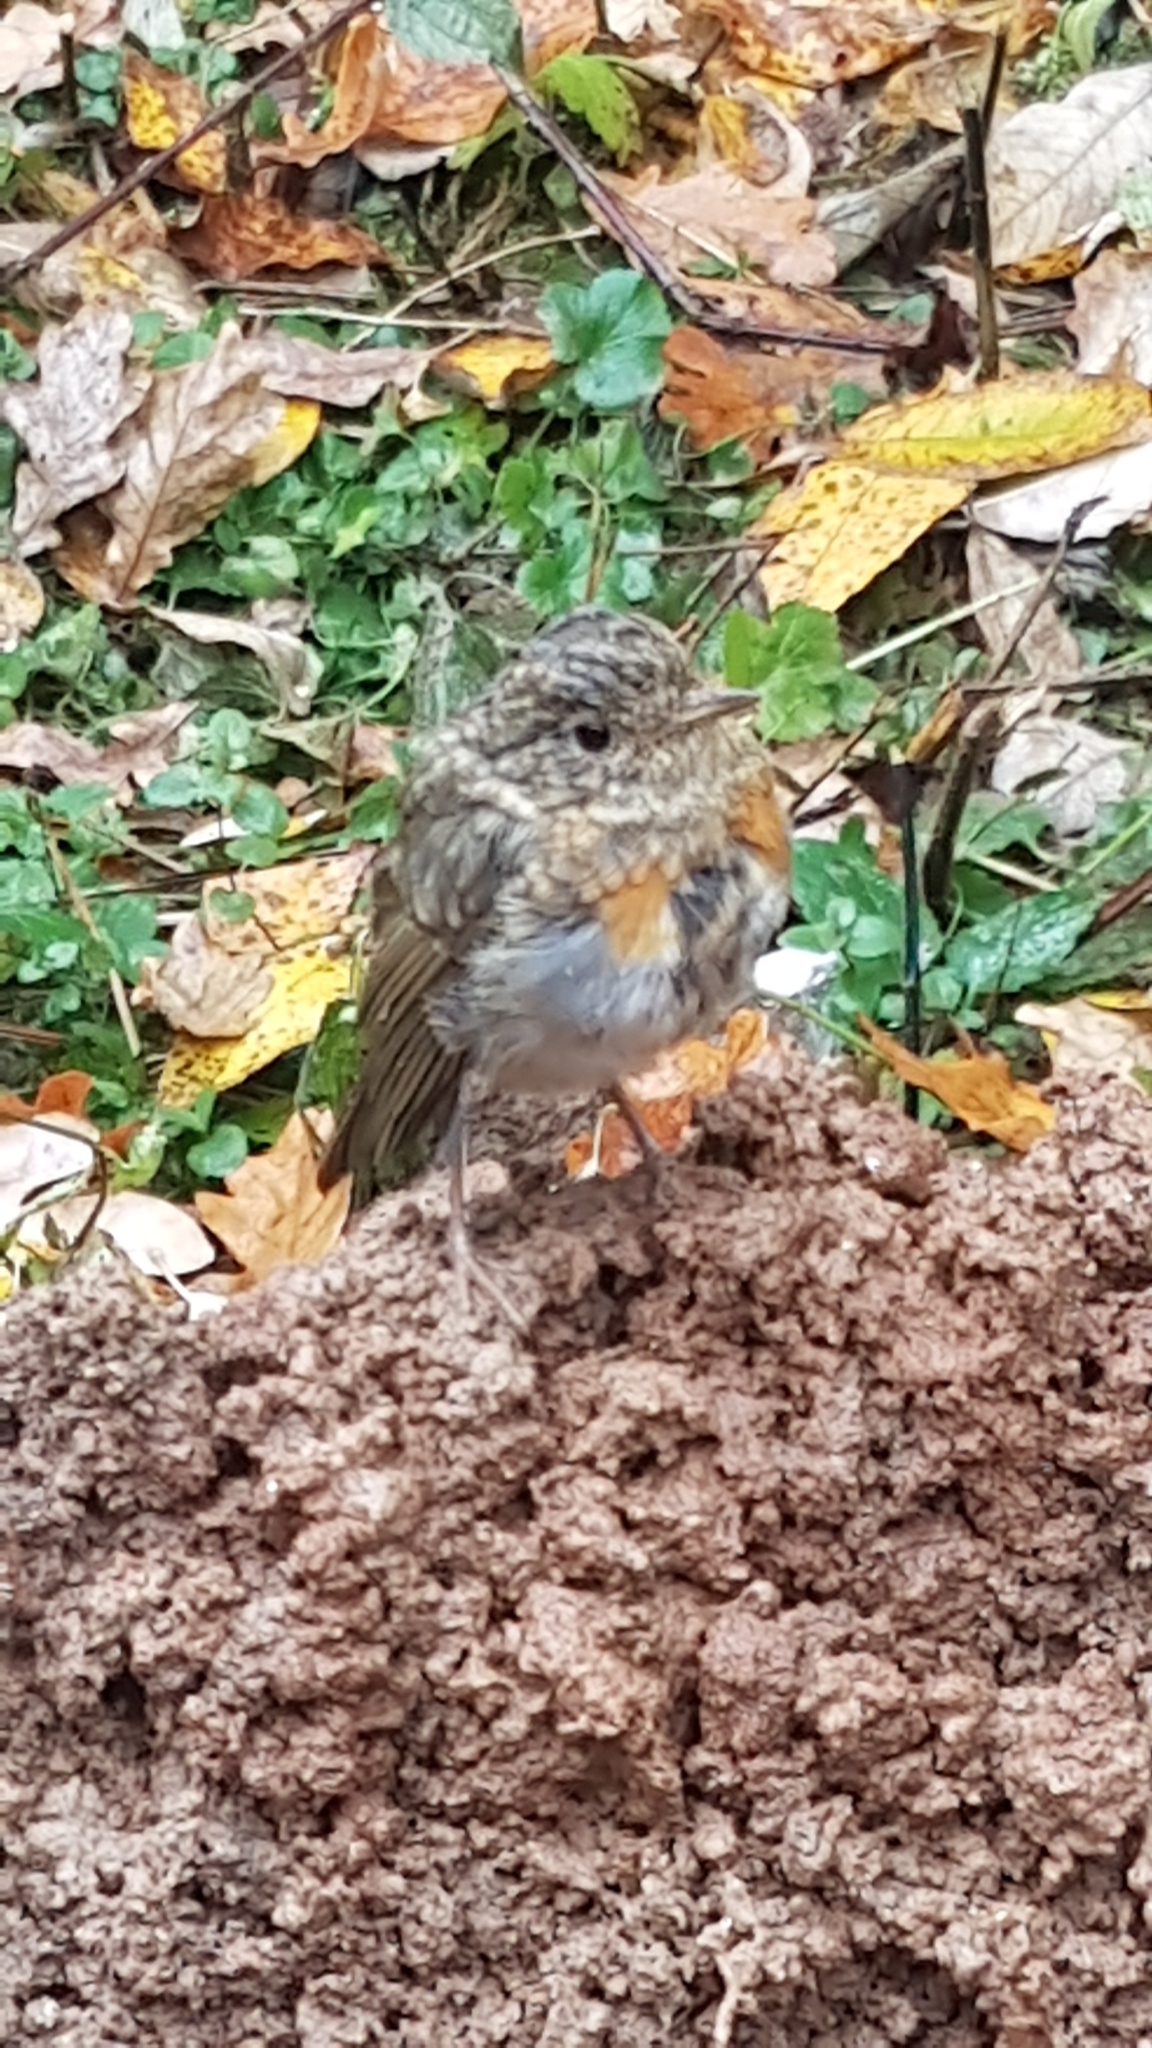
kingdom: Animalia
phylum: Chordata
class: Aves
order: Passeriformes
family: Muscicapidae
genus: Erithacus
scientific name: Erithacus rubecula
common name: European robin
